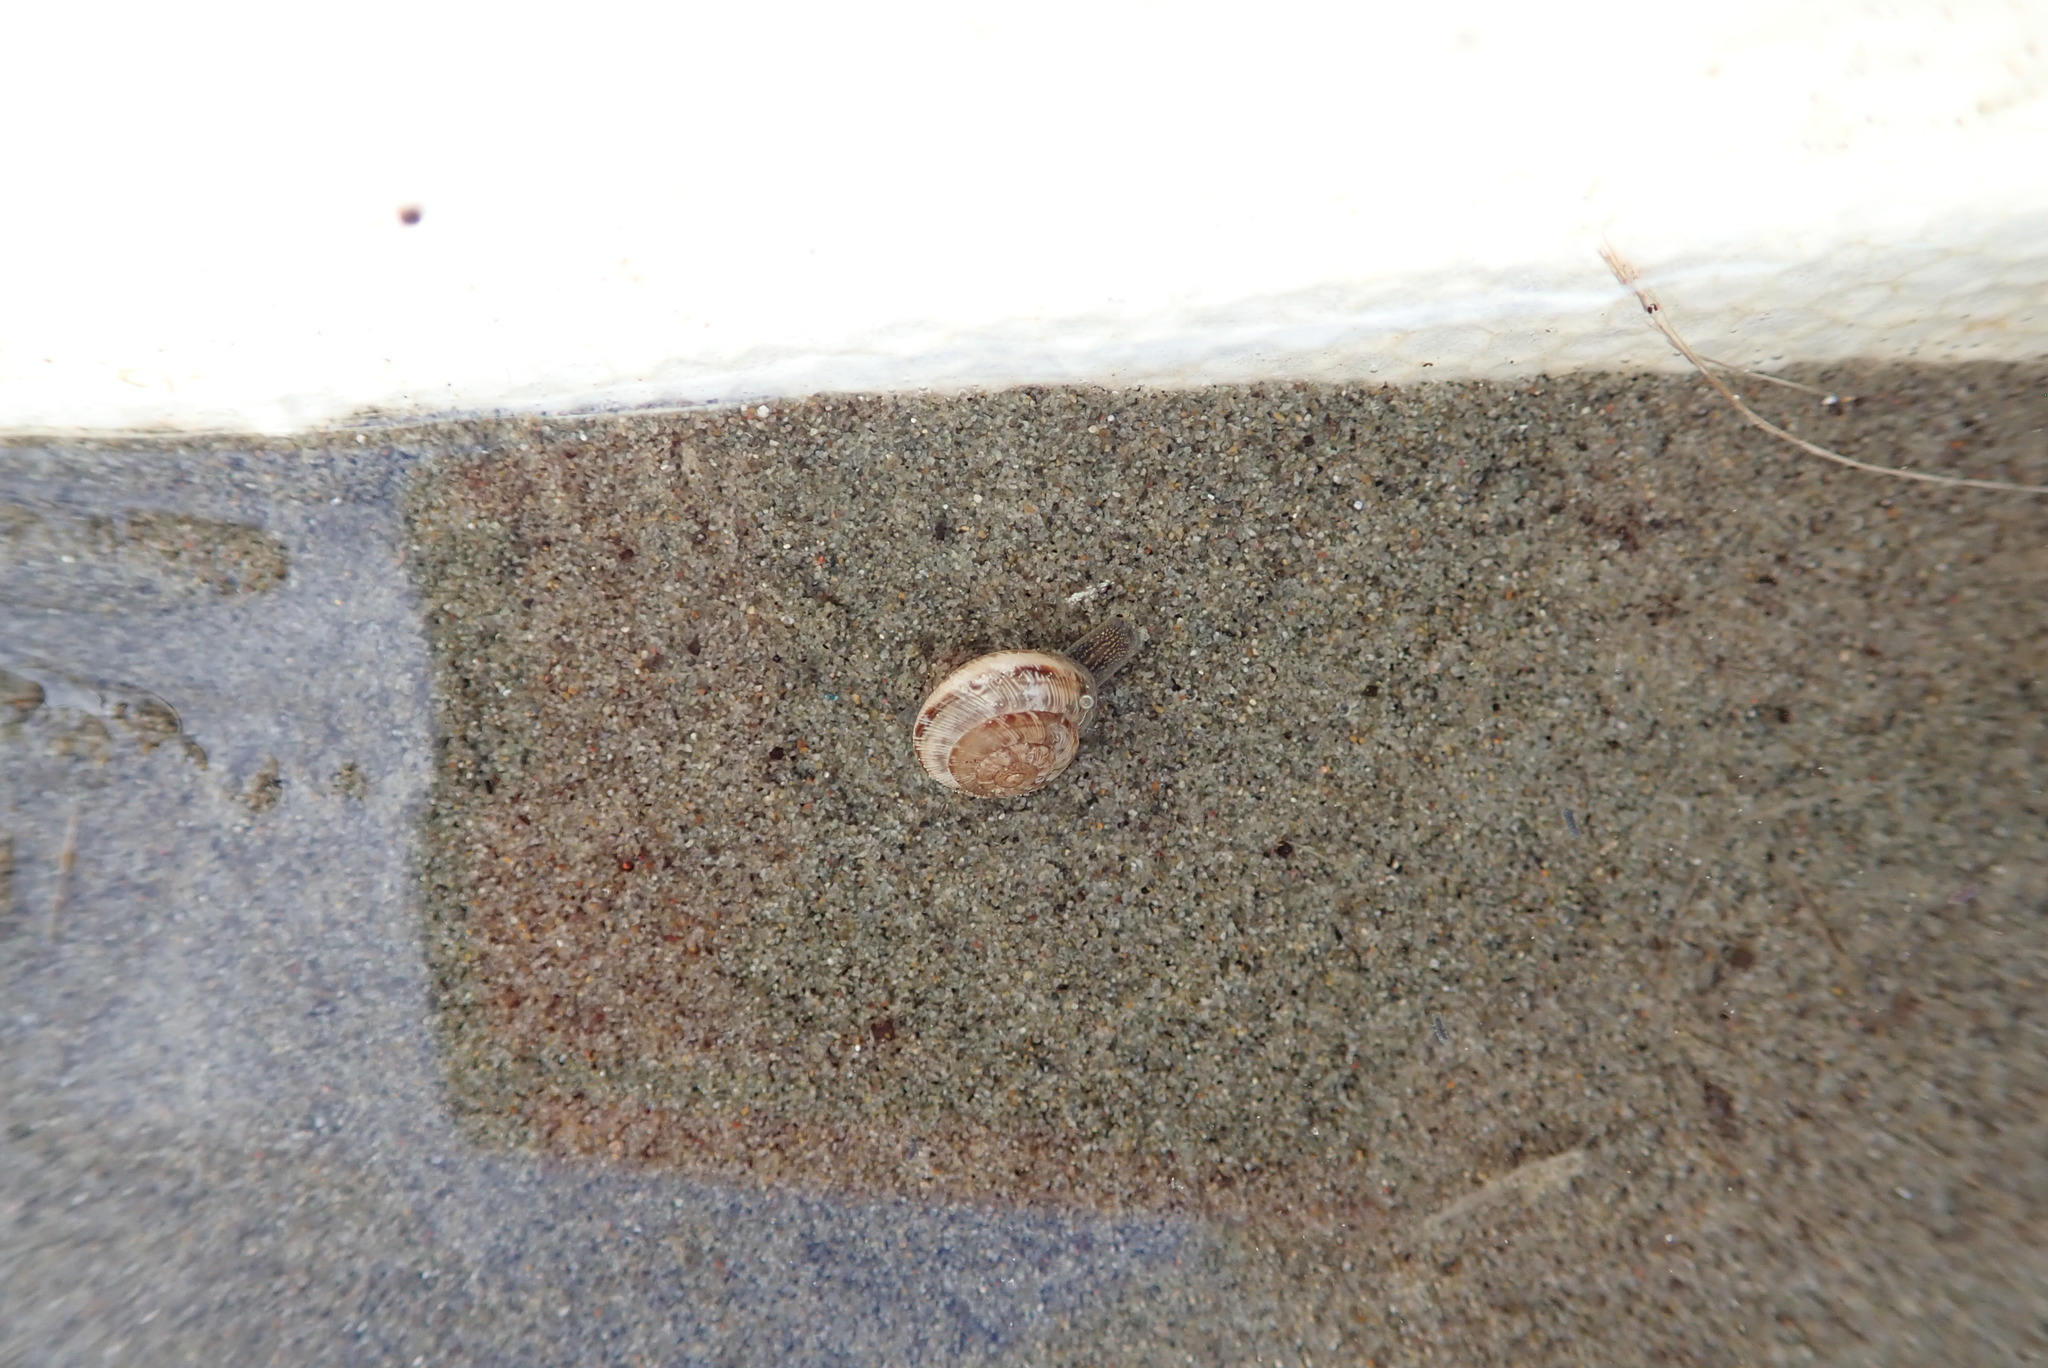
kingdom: Animalia
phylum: Mollusca
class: Gastropoda
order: Stylommatophora
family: Geomitridae
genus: Xeroplexa
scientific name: Xeroplexa intersecta
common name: Wrinkled snail
